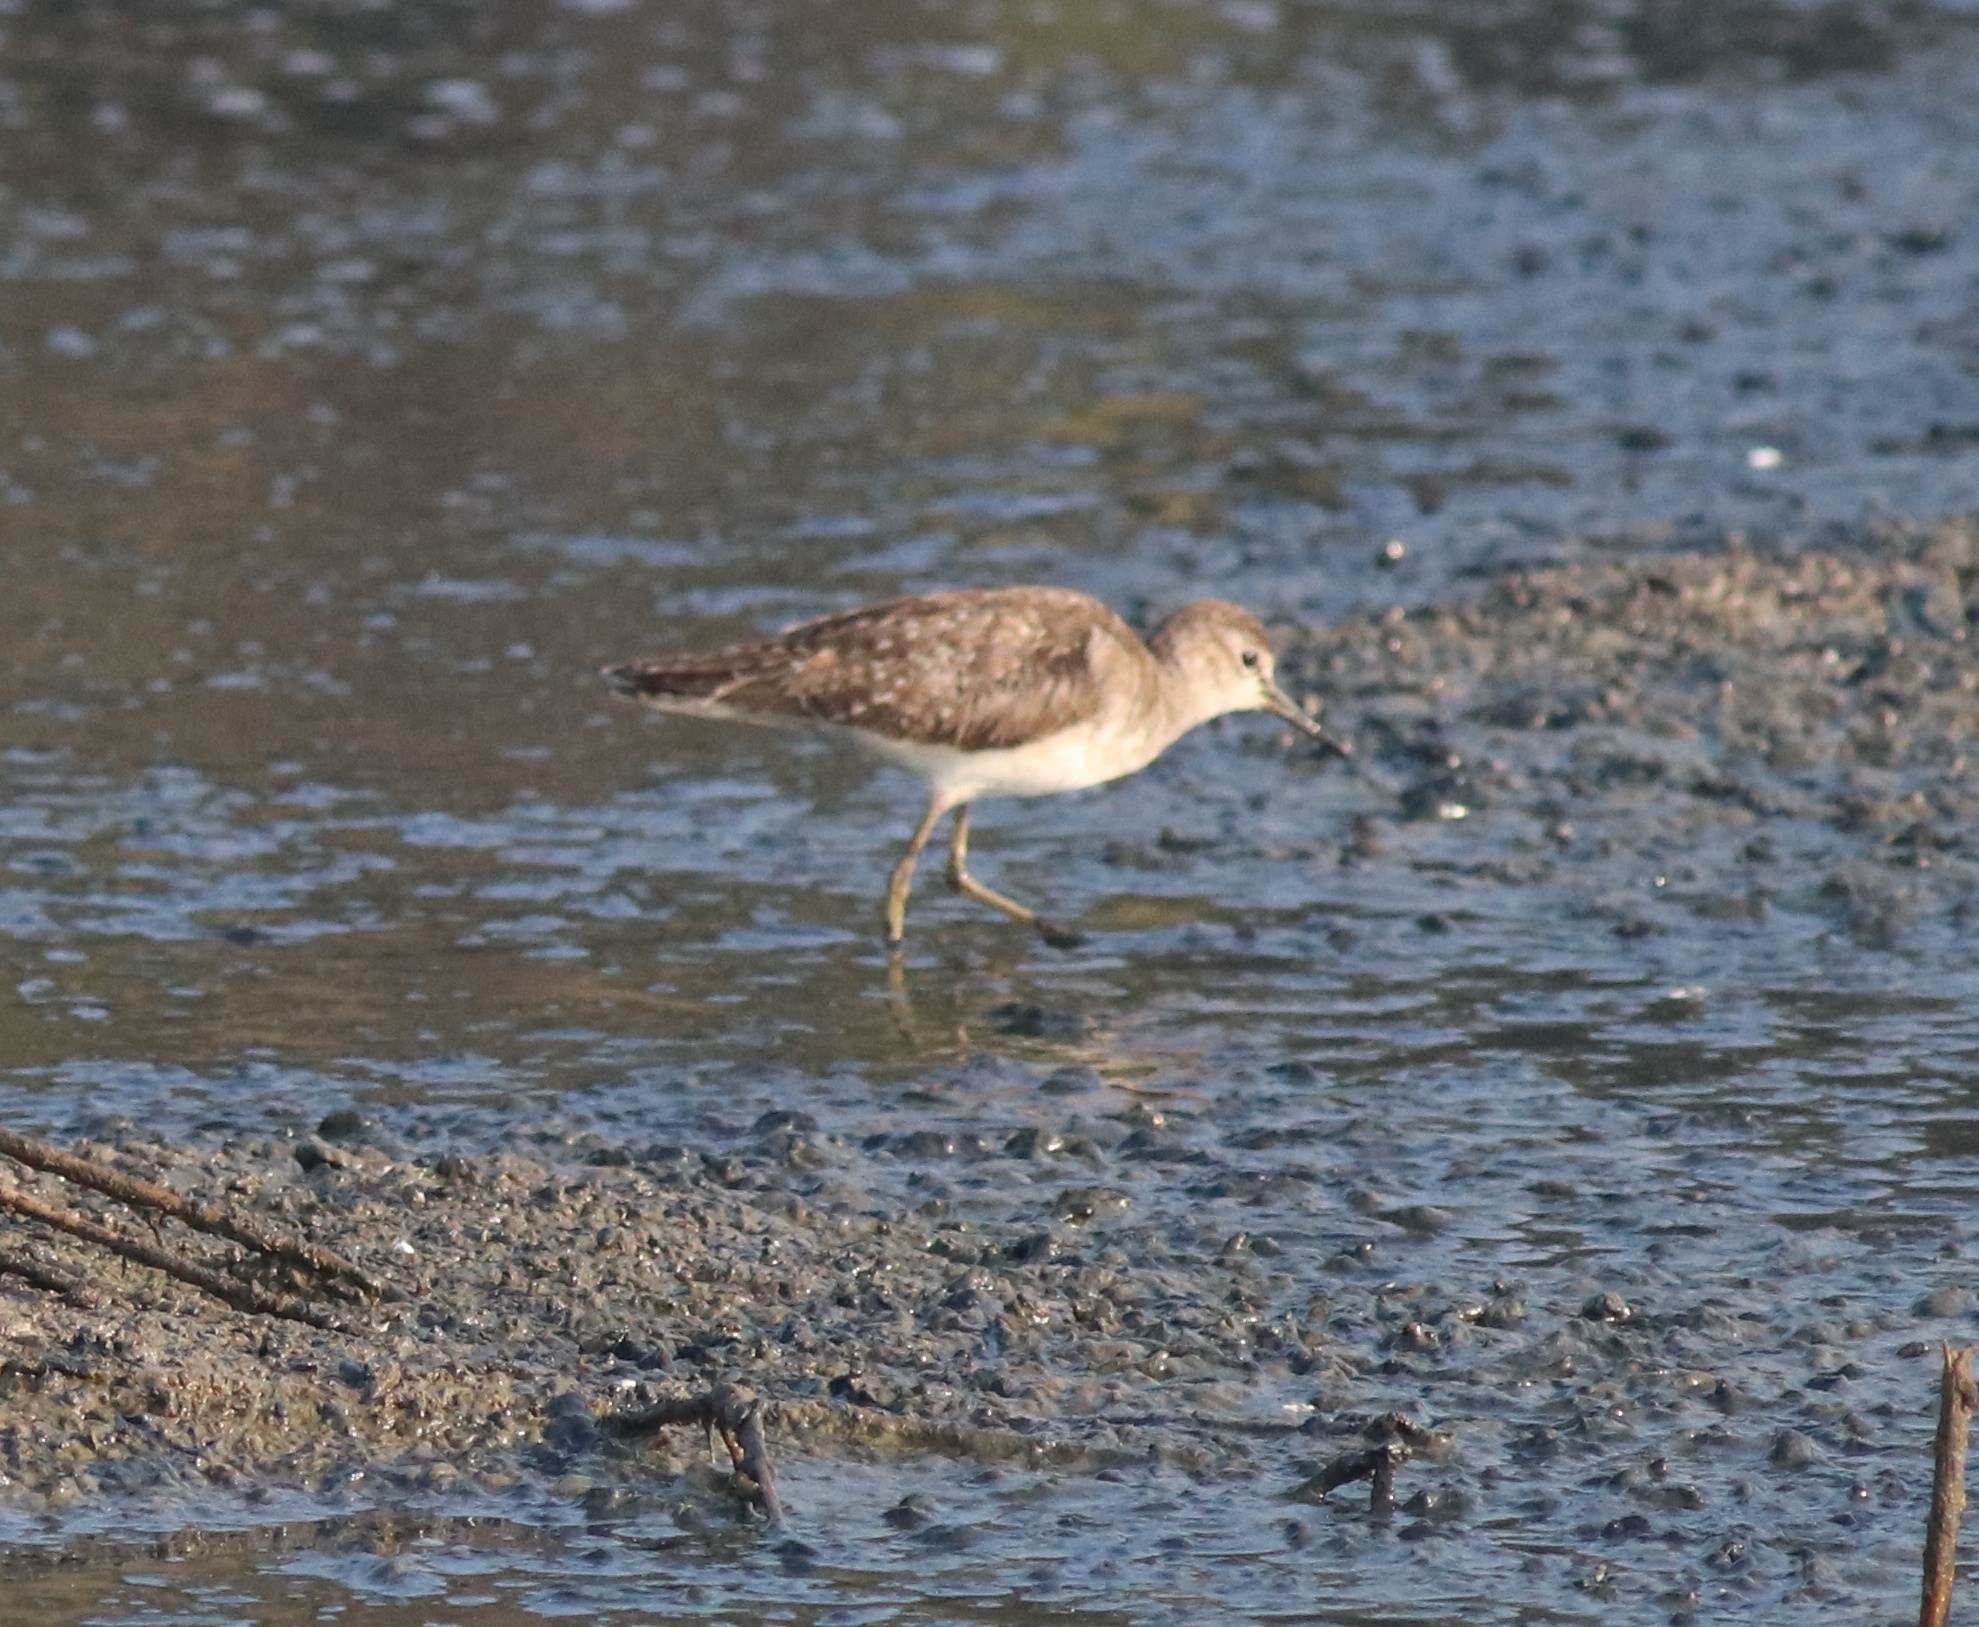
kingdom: Animalia
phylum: Chordata
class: Aves
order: Charadriiformes
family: Scolopacidae
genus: Tringa
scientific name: Tringa glareola
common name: Wood sandpiper
